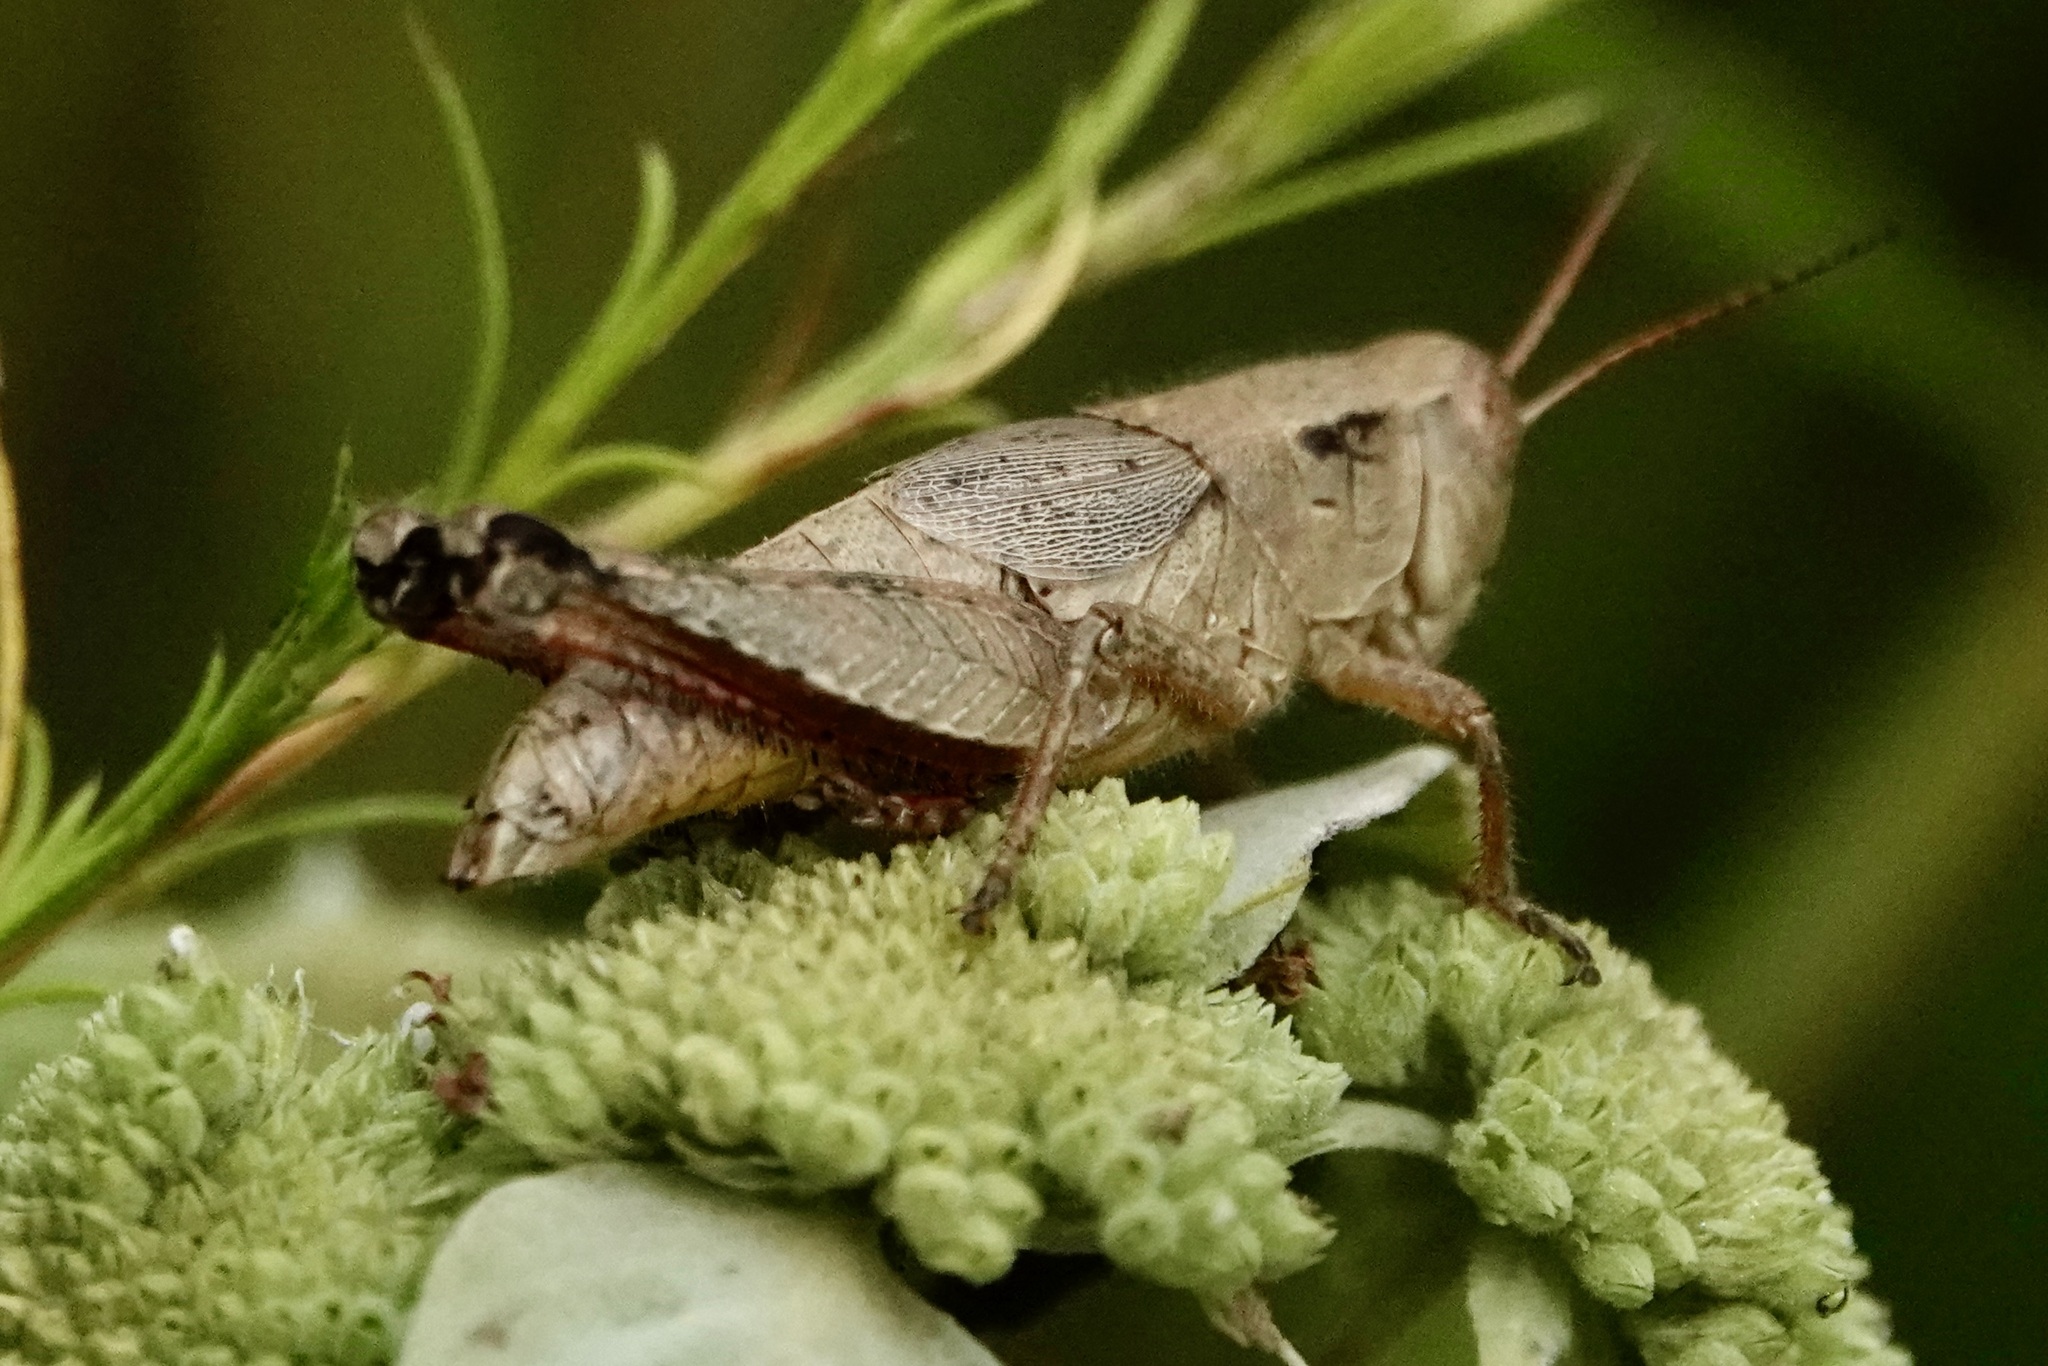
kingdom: Animalia
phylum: Arthropoda
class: Insecta
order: Orthoptera
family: Acrididae
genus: Melanoplus
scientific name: Melanoplus scudderi
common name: Scudder's short-winged locust
